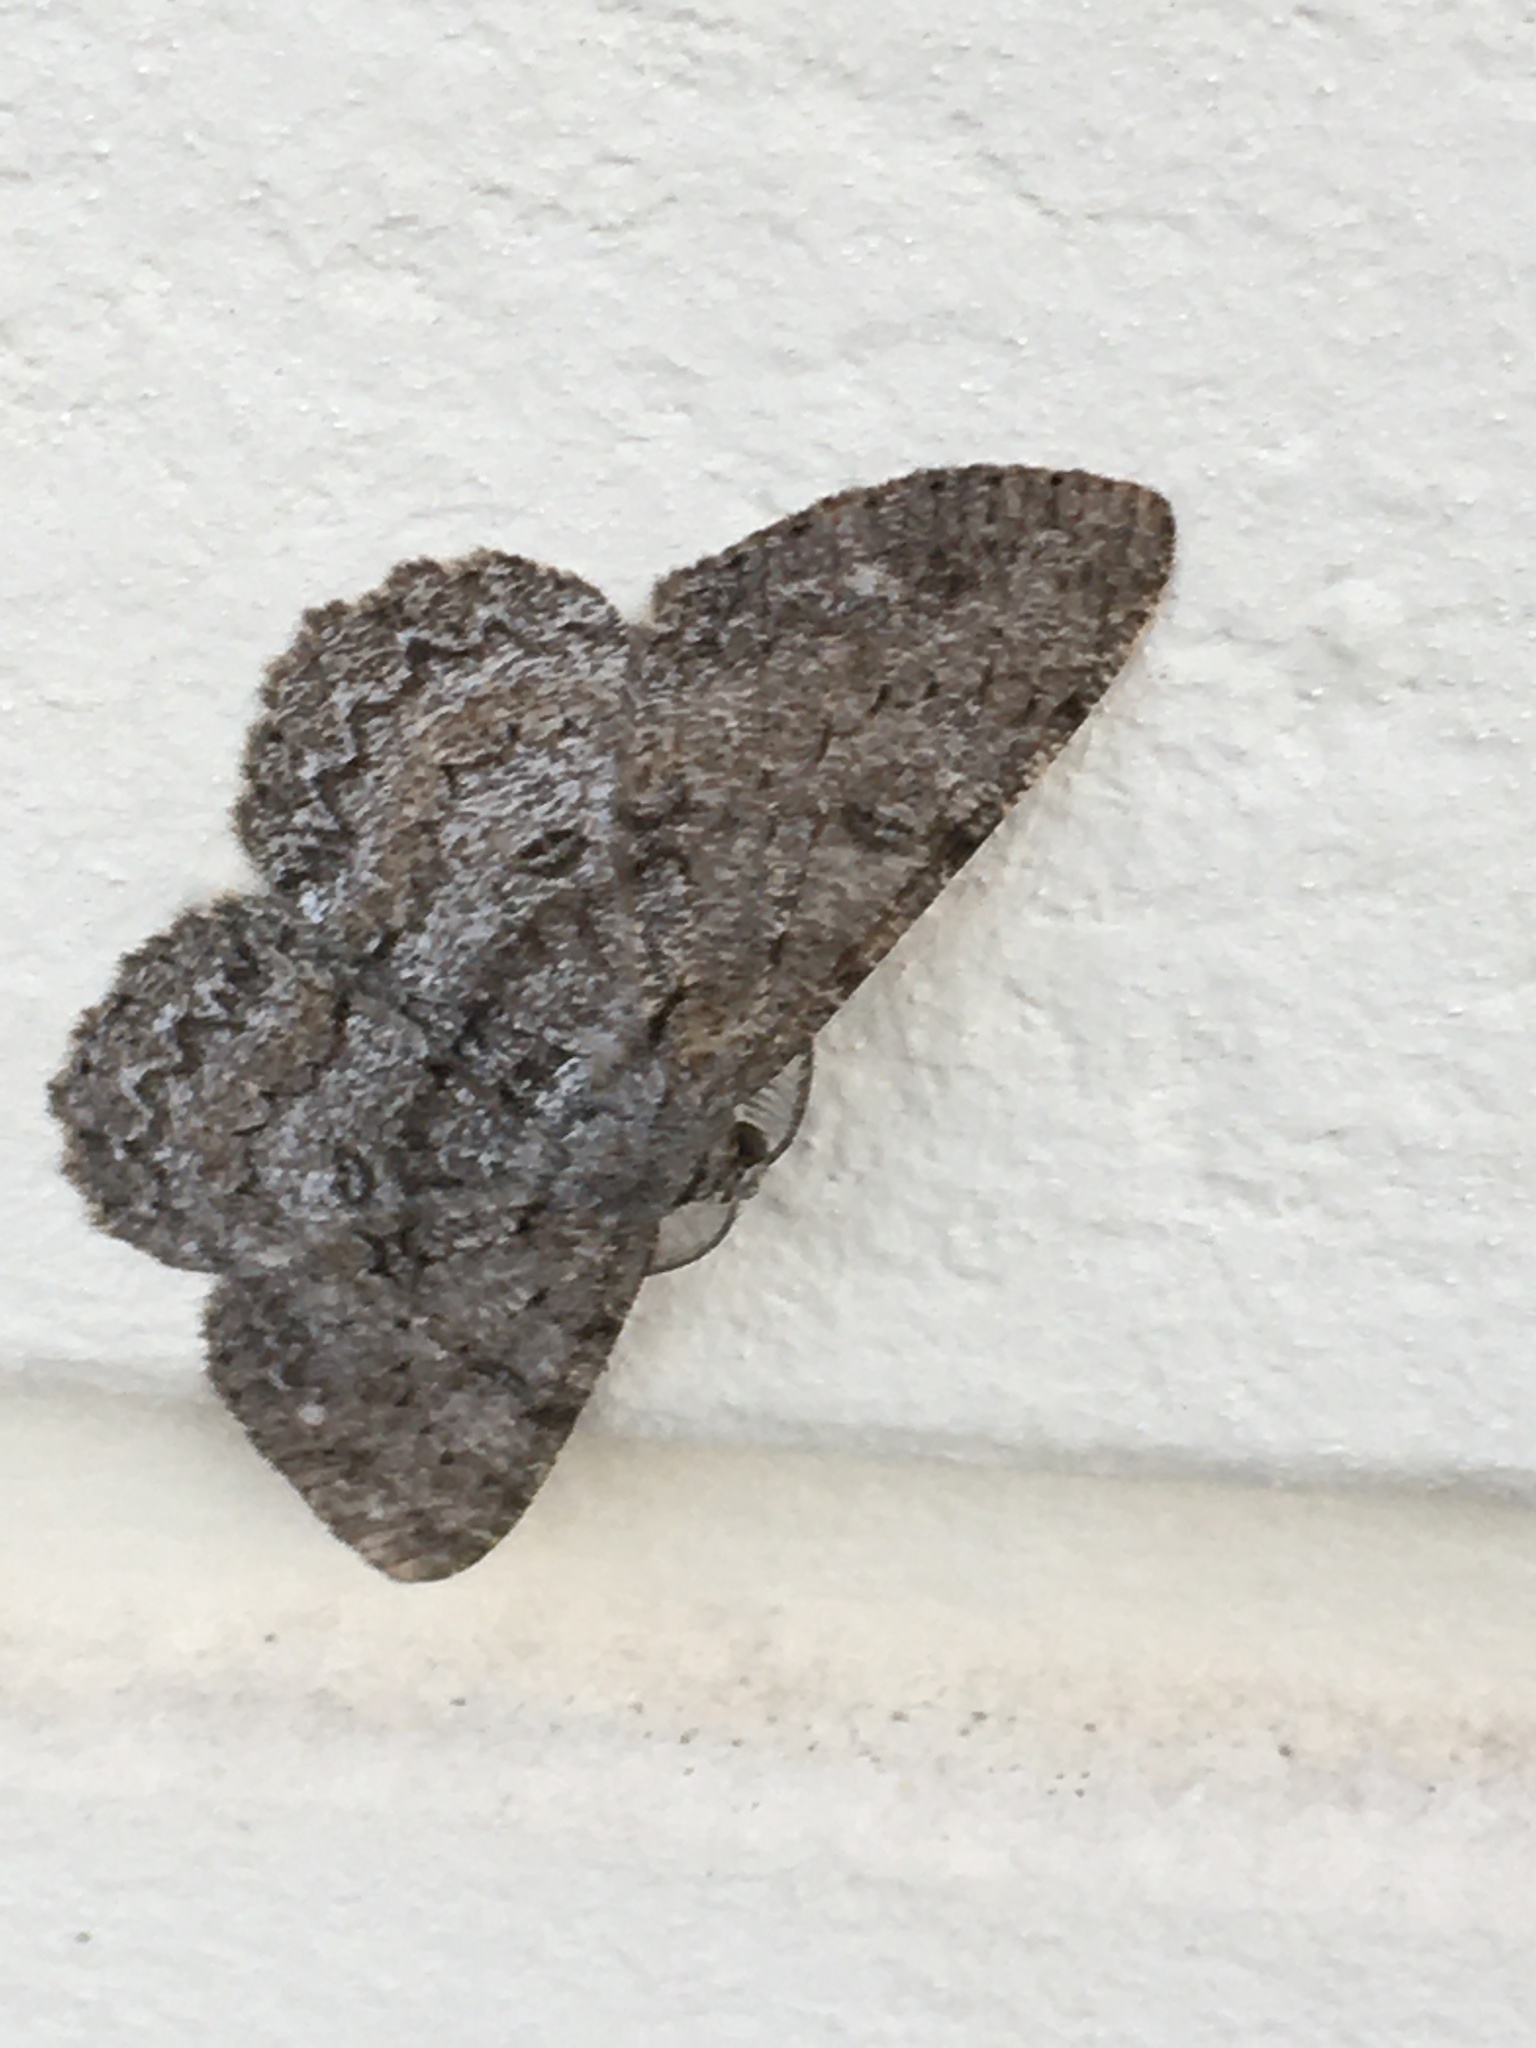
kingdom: Animalia
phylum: Arthropoda
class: Insecta
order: Lepidoptera
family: Geometridae
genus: Hypomecis
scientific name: Hypomecis punctinalis
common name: Pale oak beauty
